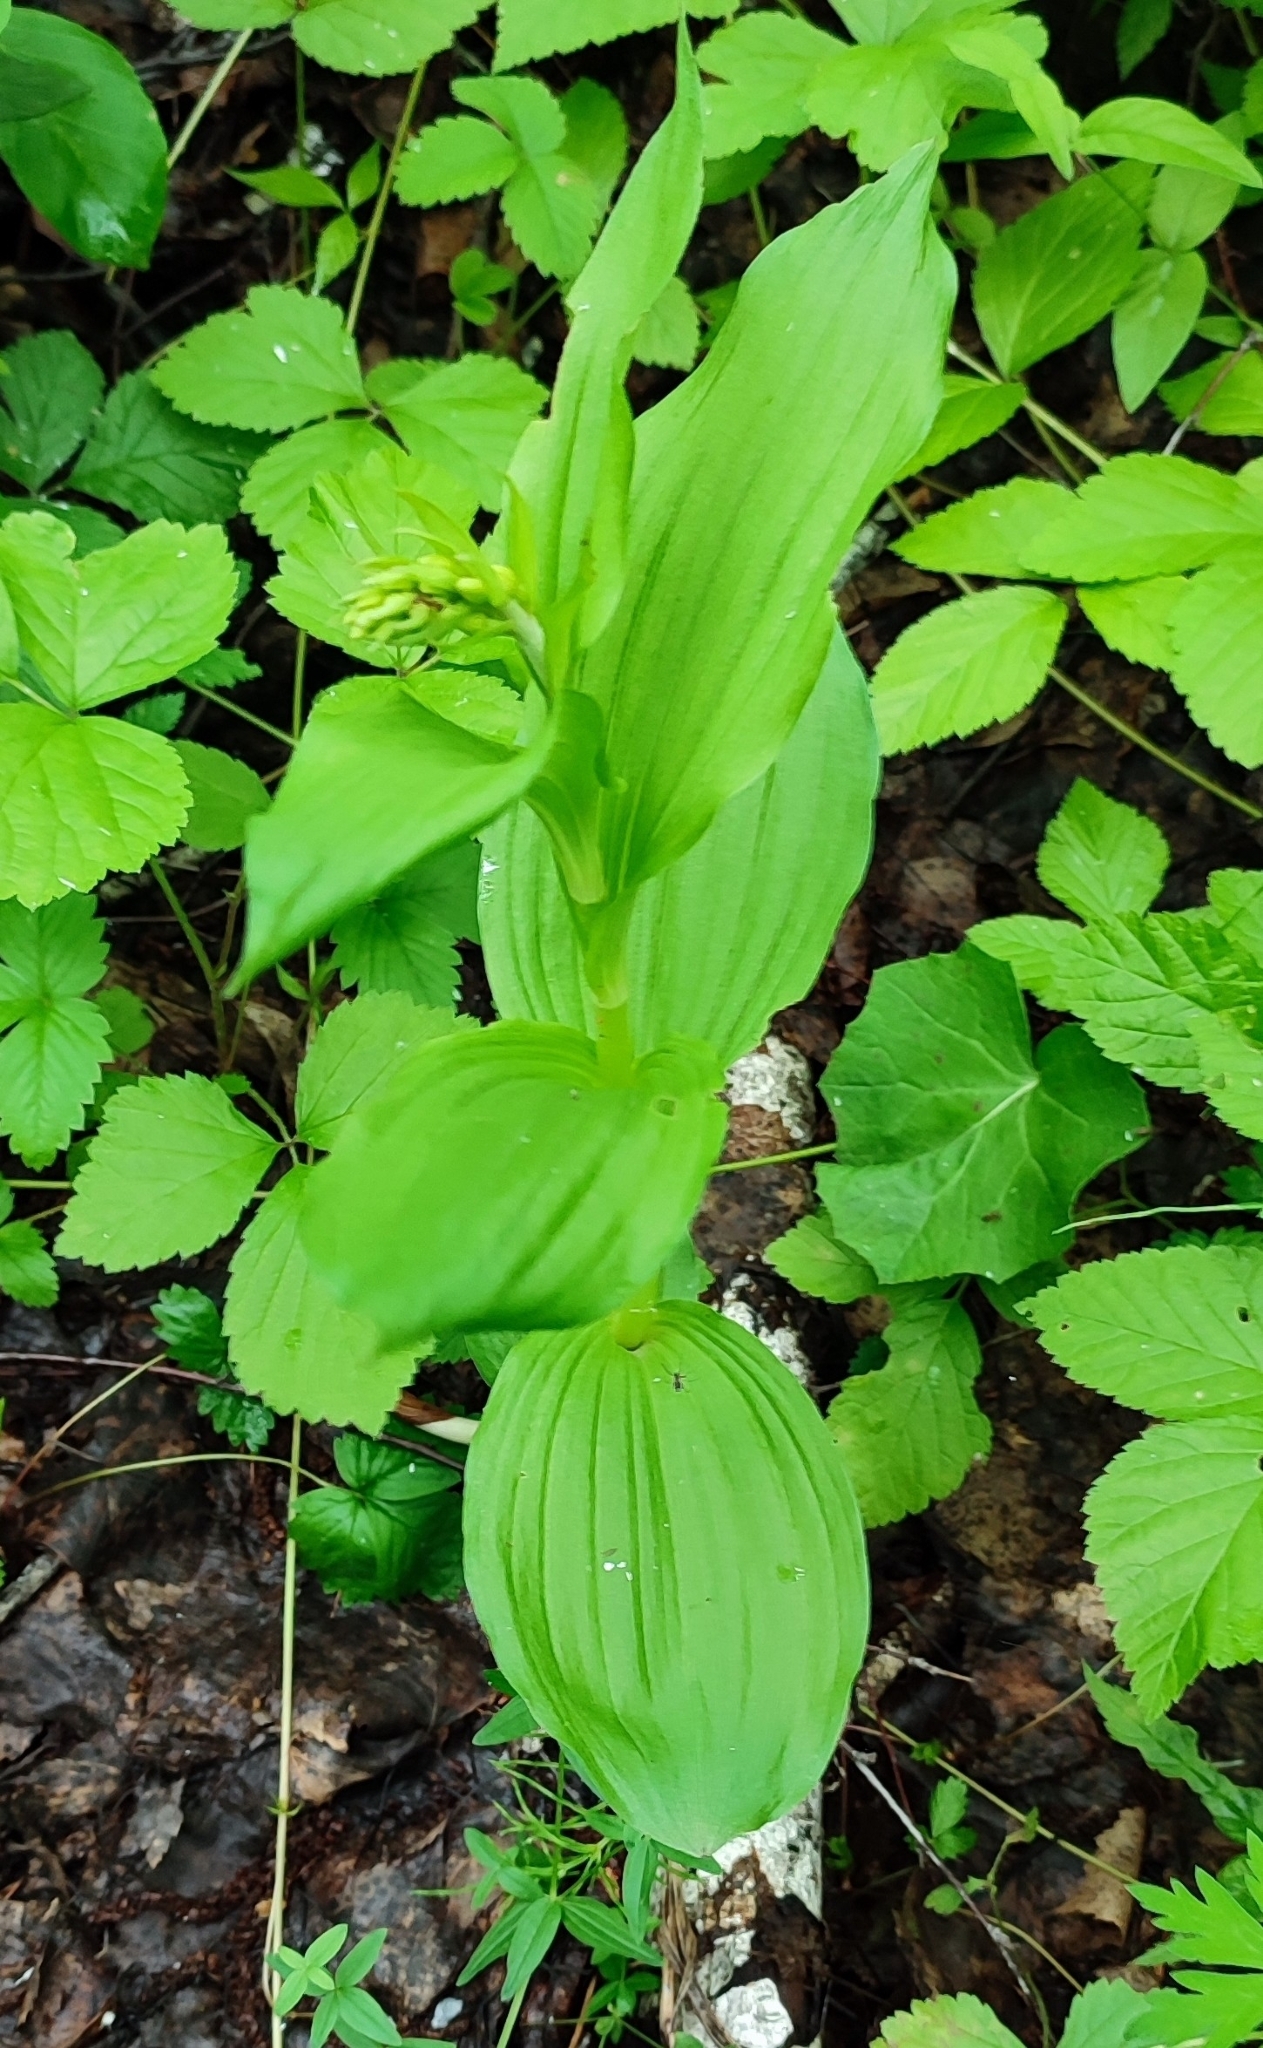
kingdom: Plantae
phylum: Tracheophyta
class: Liliopsida
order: Asparagales
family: Orchidaceae
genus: Epipactis
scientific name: Epipactis helleborine
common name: Broad-leaved helleborine
